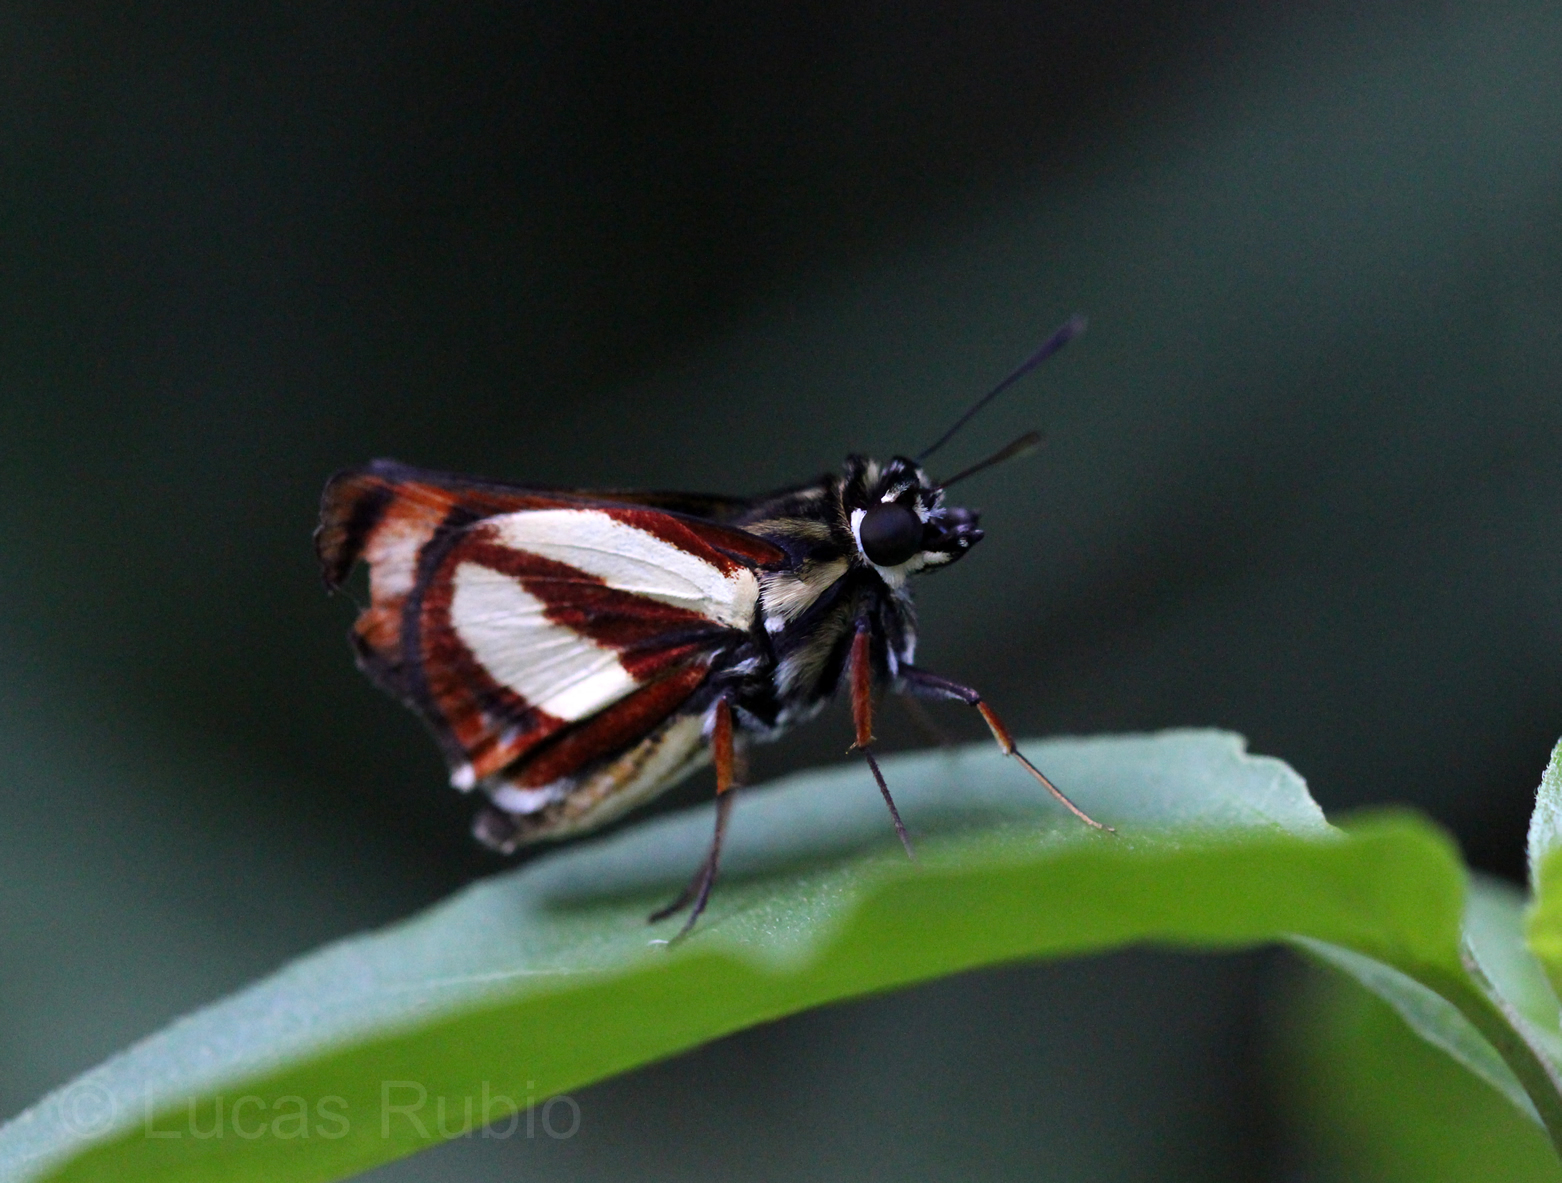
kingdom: Animalia
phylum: Arthropoda
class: Insecta
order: Lepidoptera
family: Hesperiidae
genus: Propertius
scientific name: Propertius propertius
